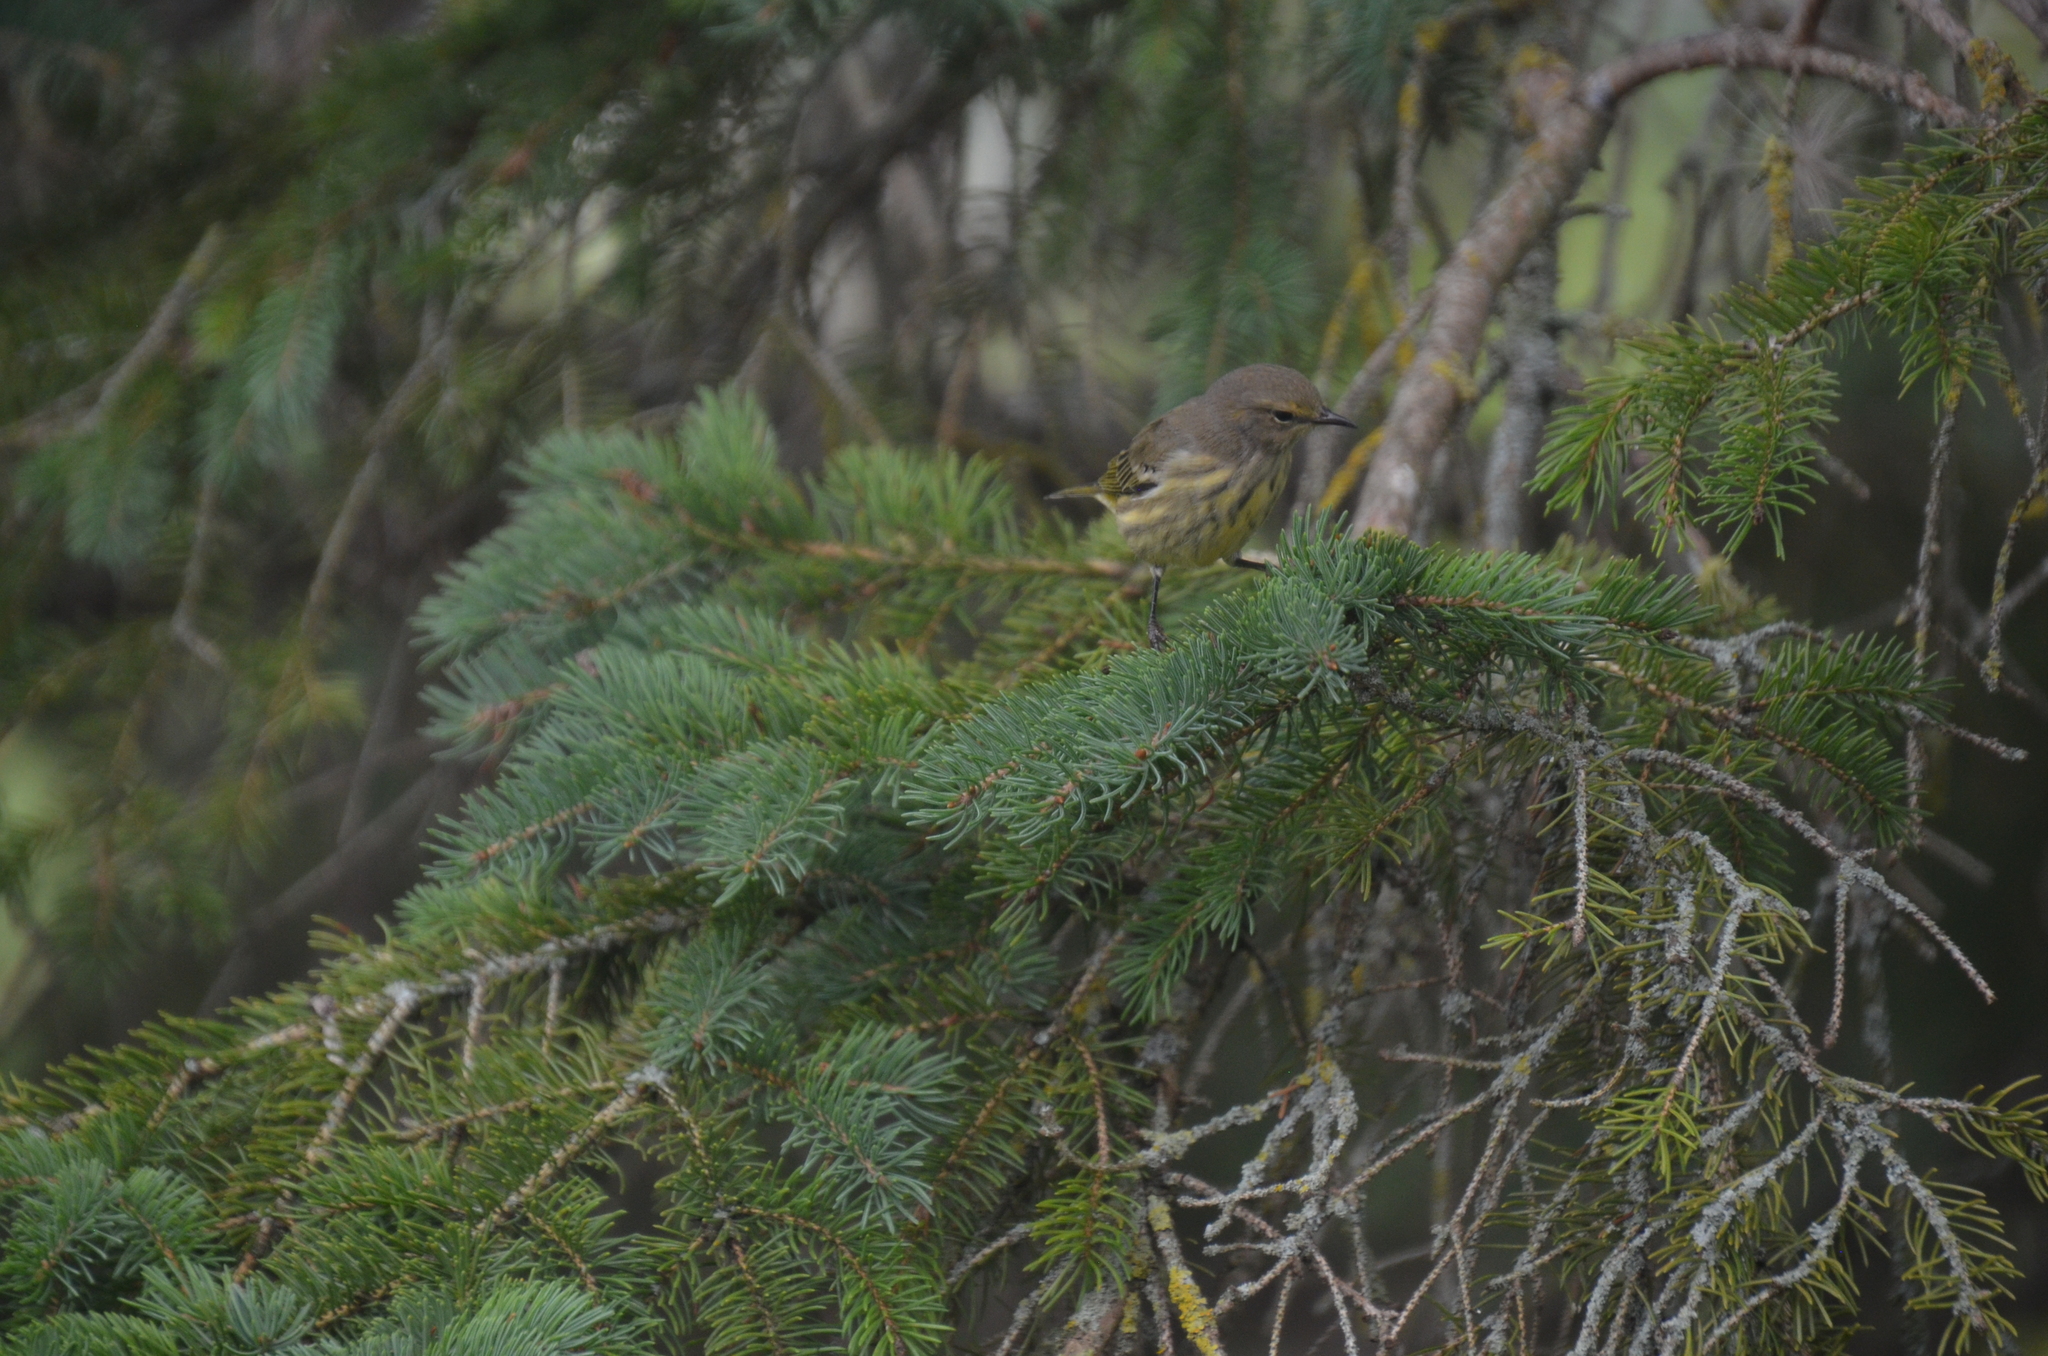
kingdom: Animalia
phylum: Chordata
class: Aves
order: Passeriformes
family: Parulidae
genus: Setophaga
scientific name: Setophaga tigrina
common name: Cape may warbler
